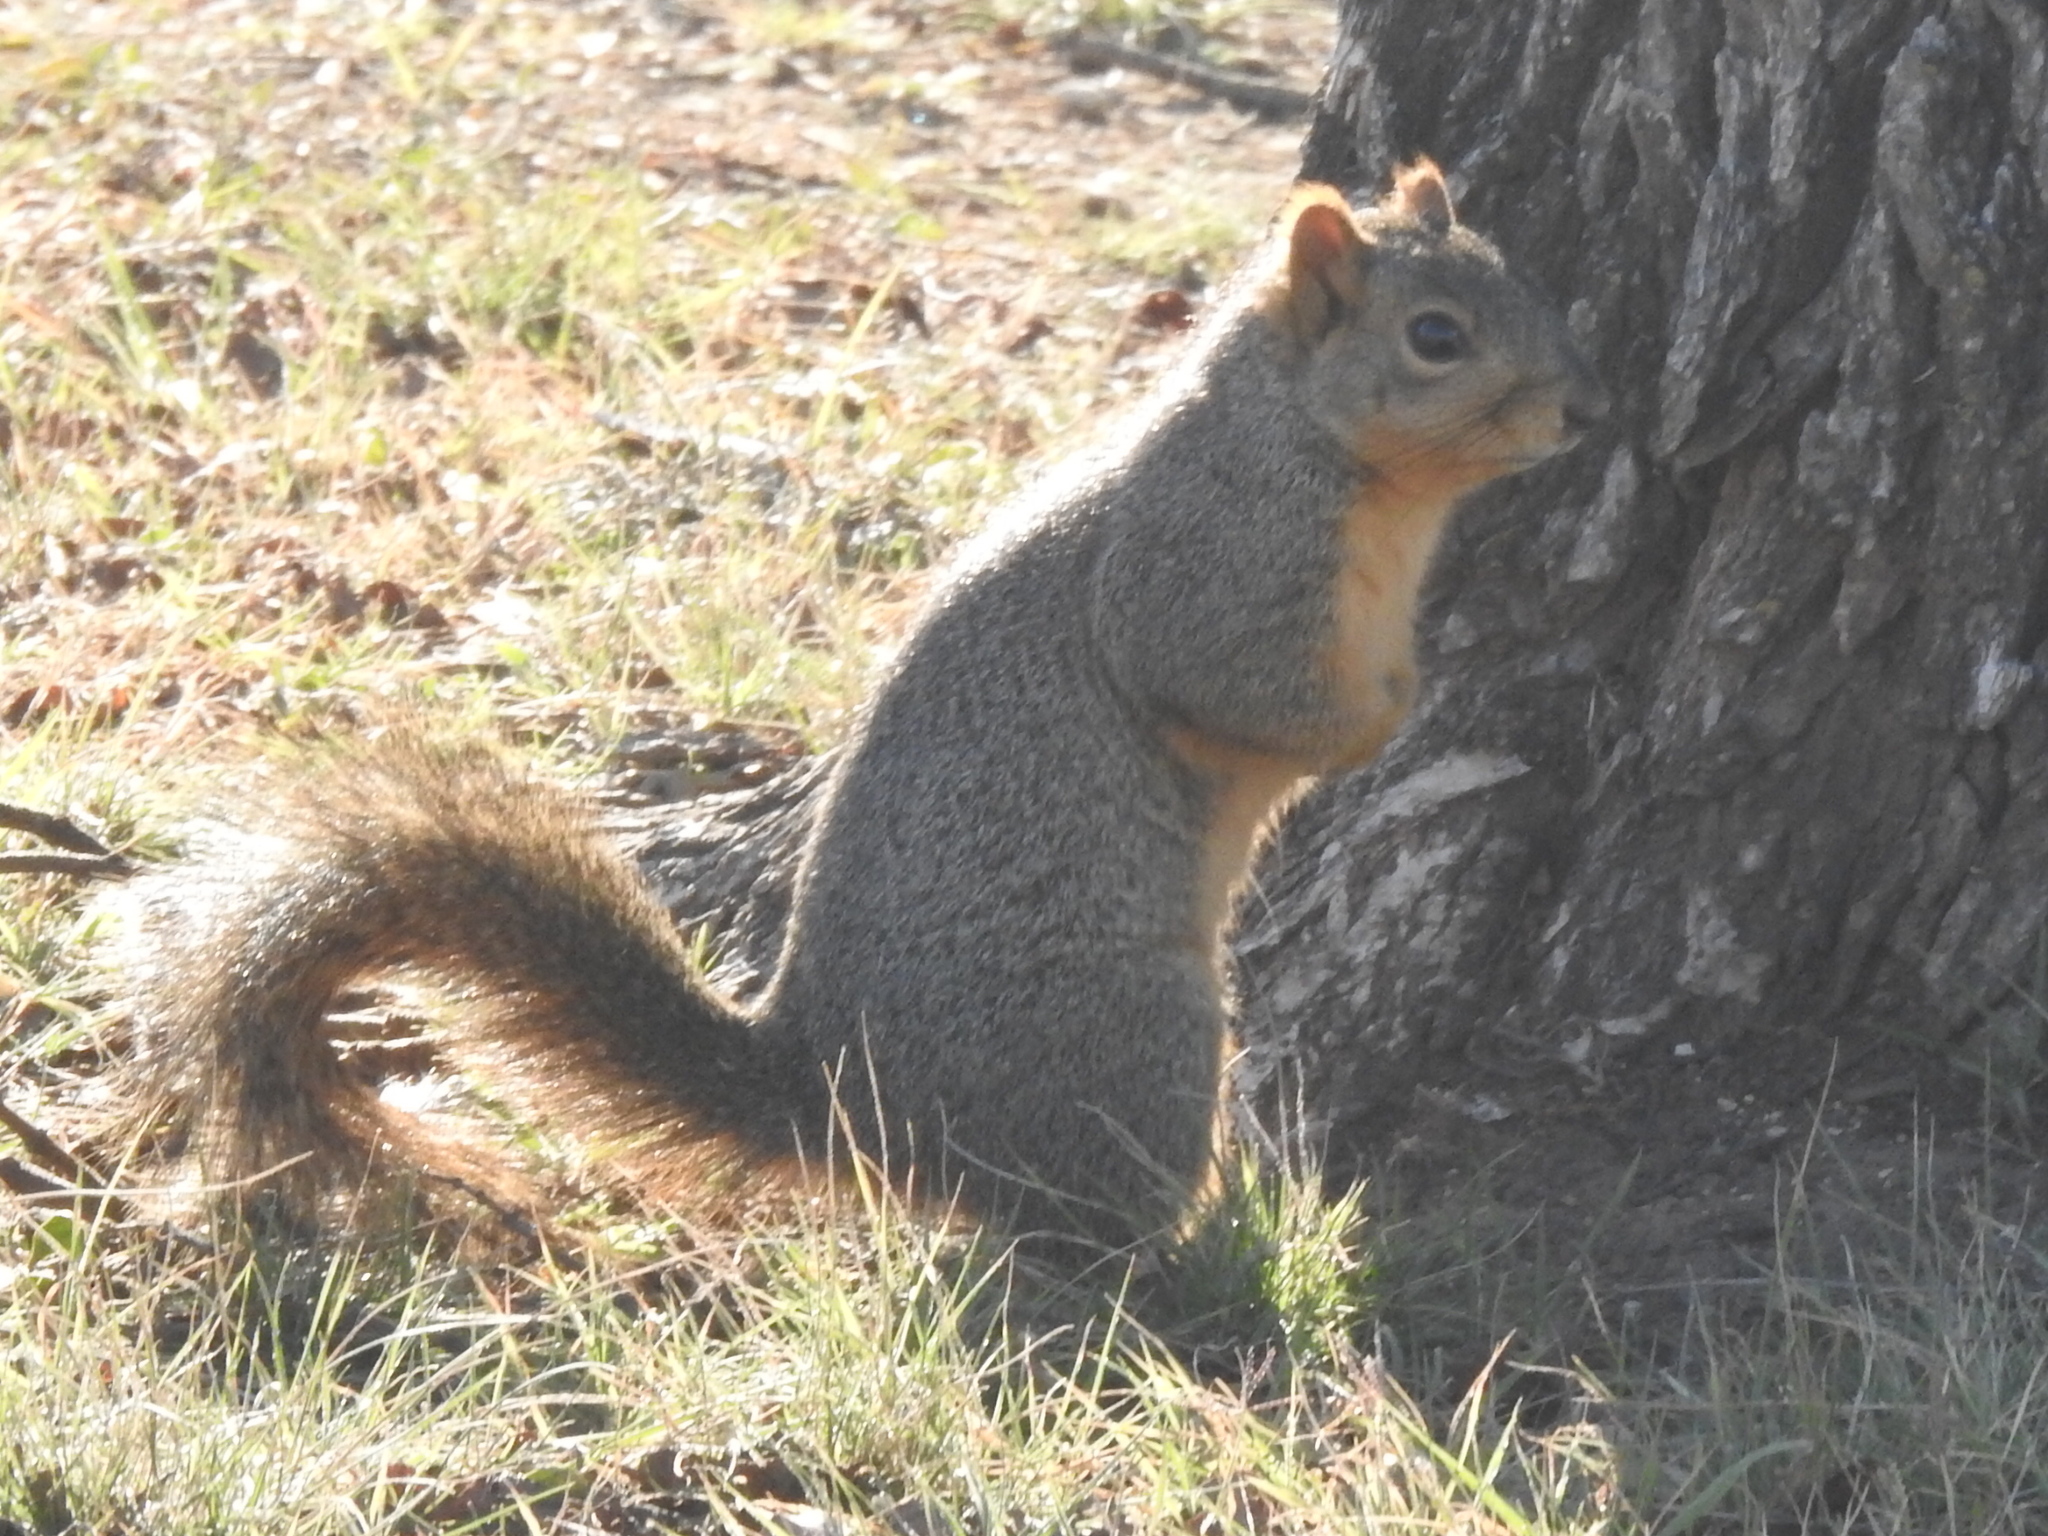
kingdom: Animalia
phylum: Chordata
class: Mammalia
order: Rodentia
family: Sciuridae
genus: Sciurus
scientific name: Sciurus niger
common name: Fox squirrel
